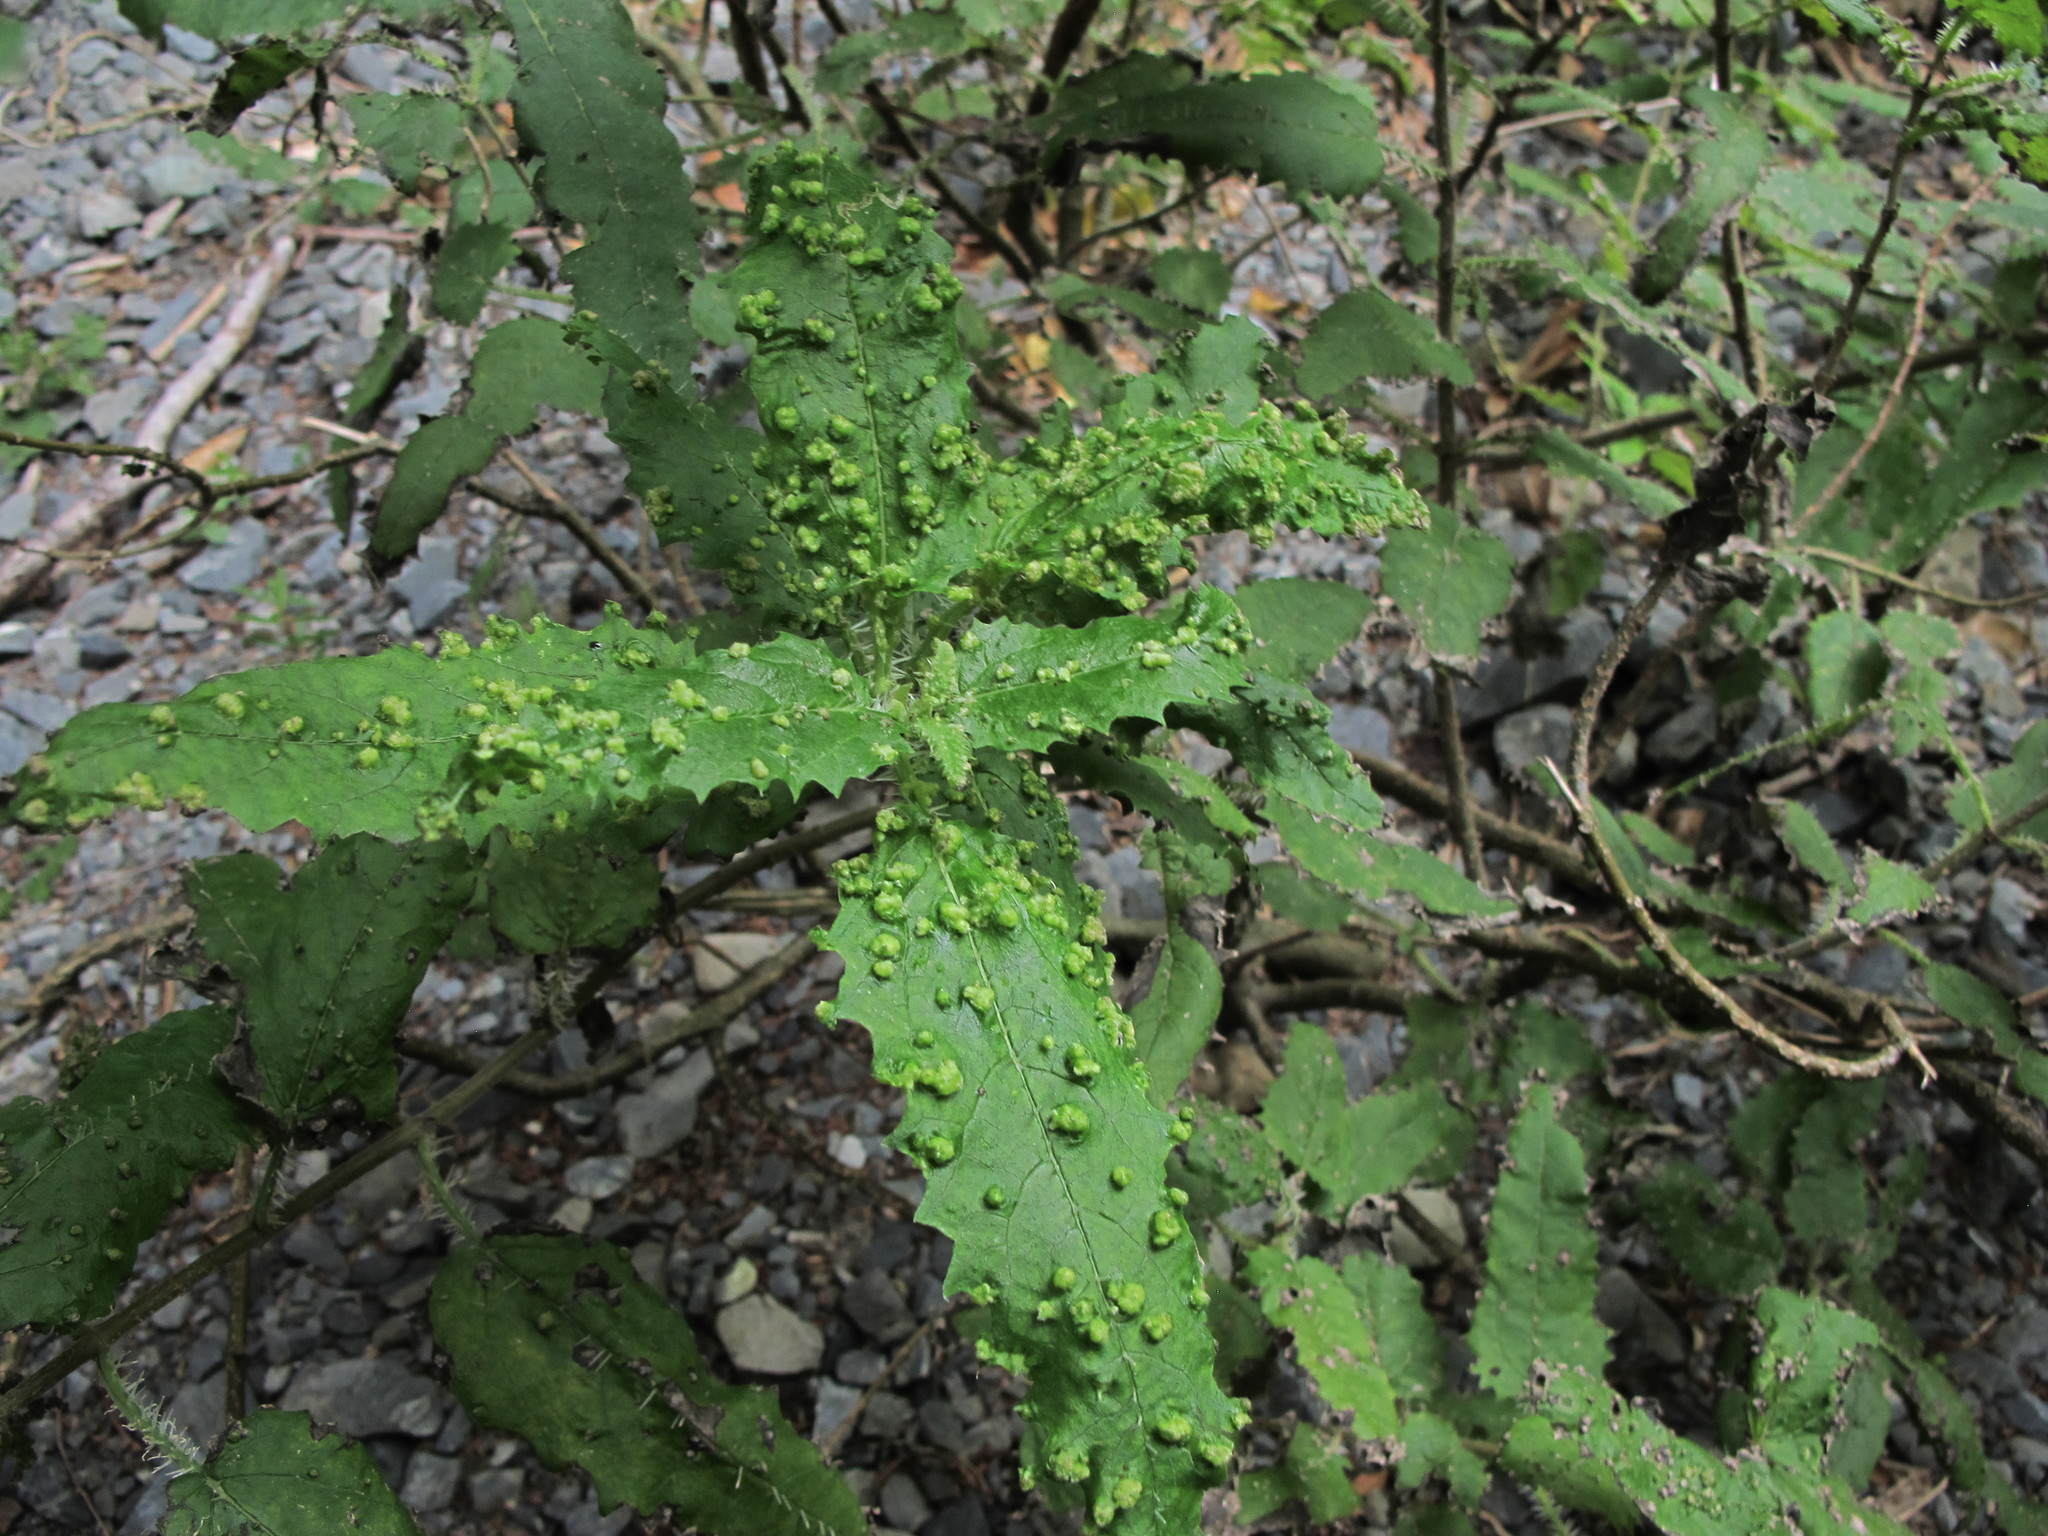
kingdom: Plantae
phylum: Tracheophyta
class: Magnoliopsida
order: Rosales
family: Urticaceae
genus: Urtica
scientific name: Urtica ferox
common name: Tree nettle
